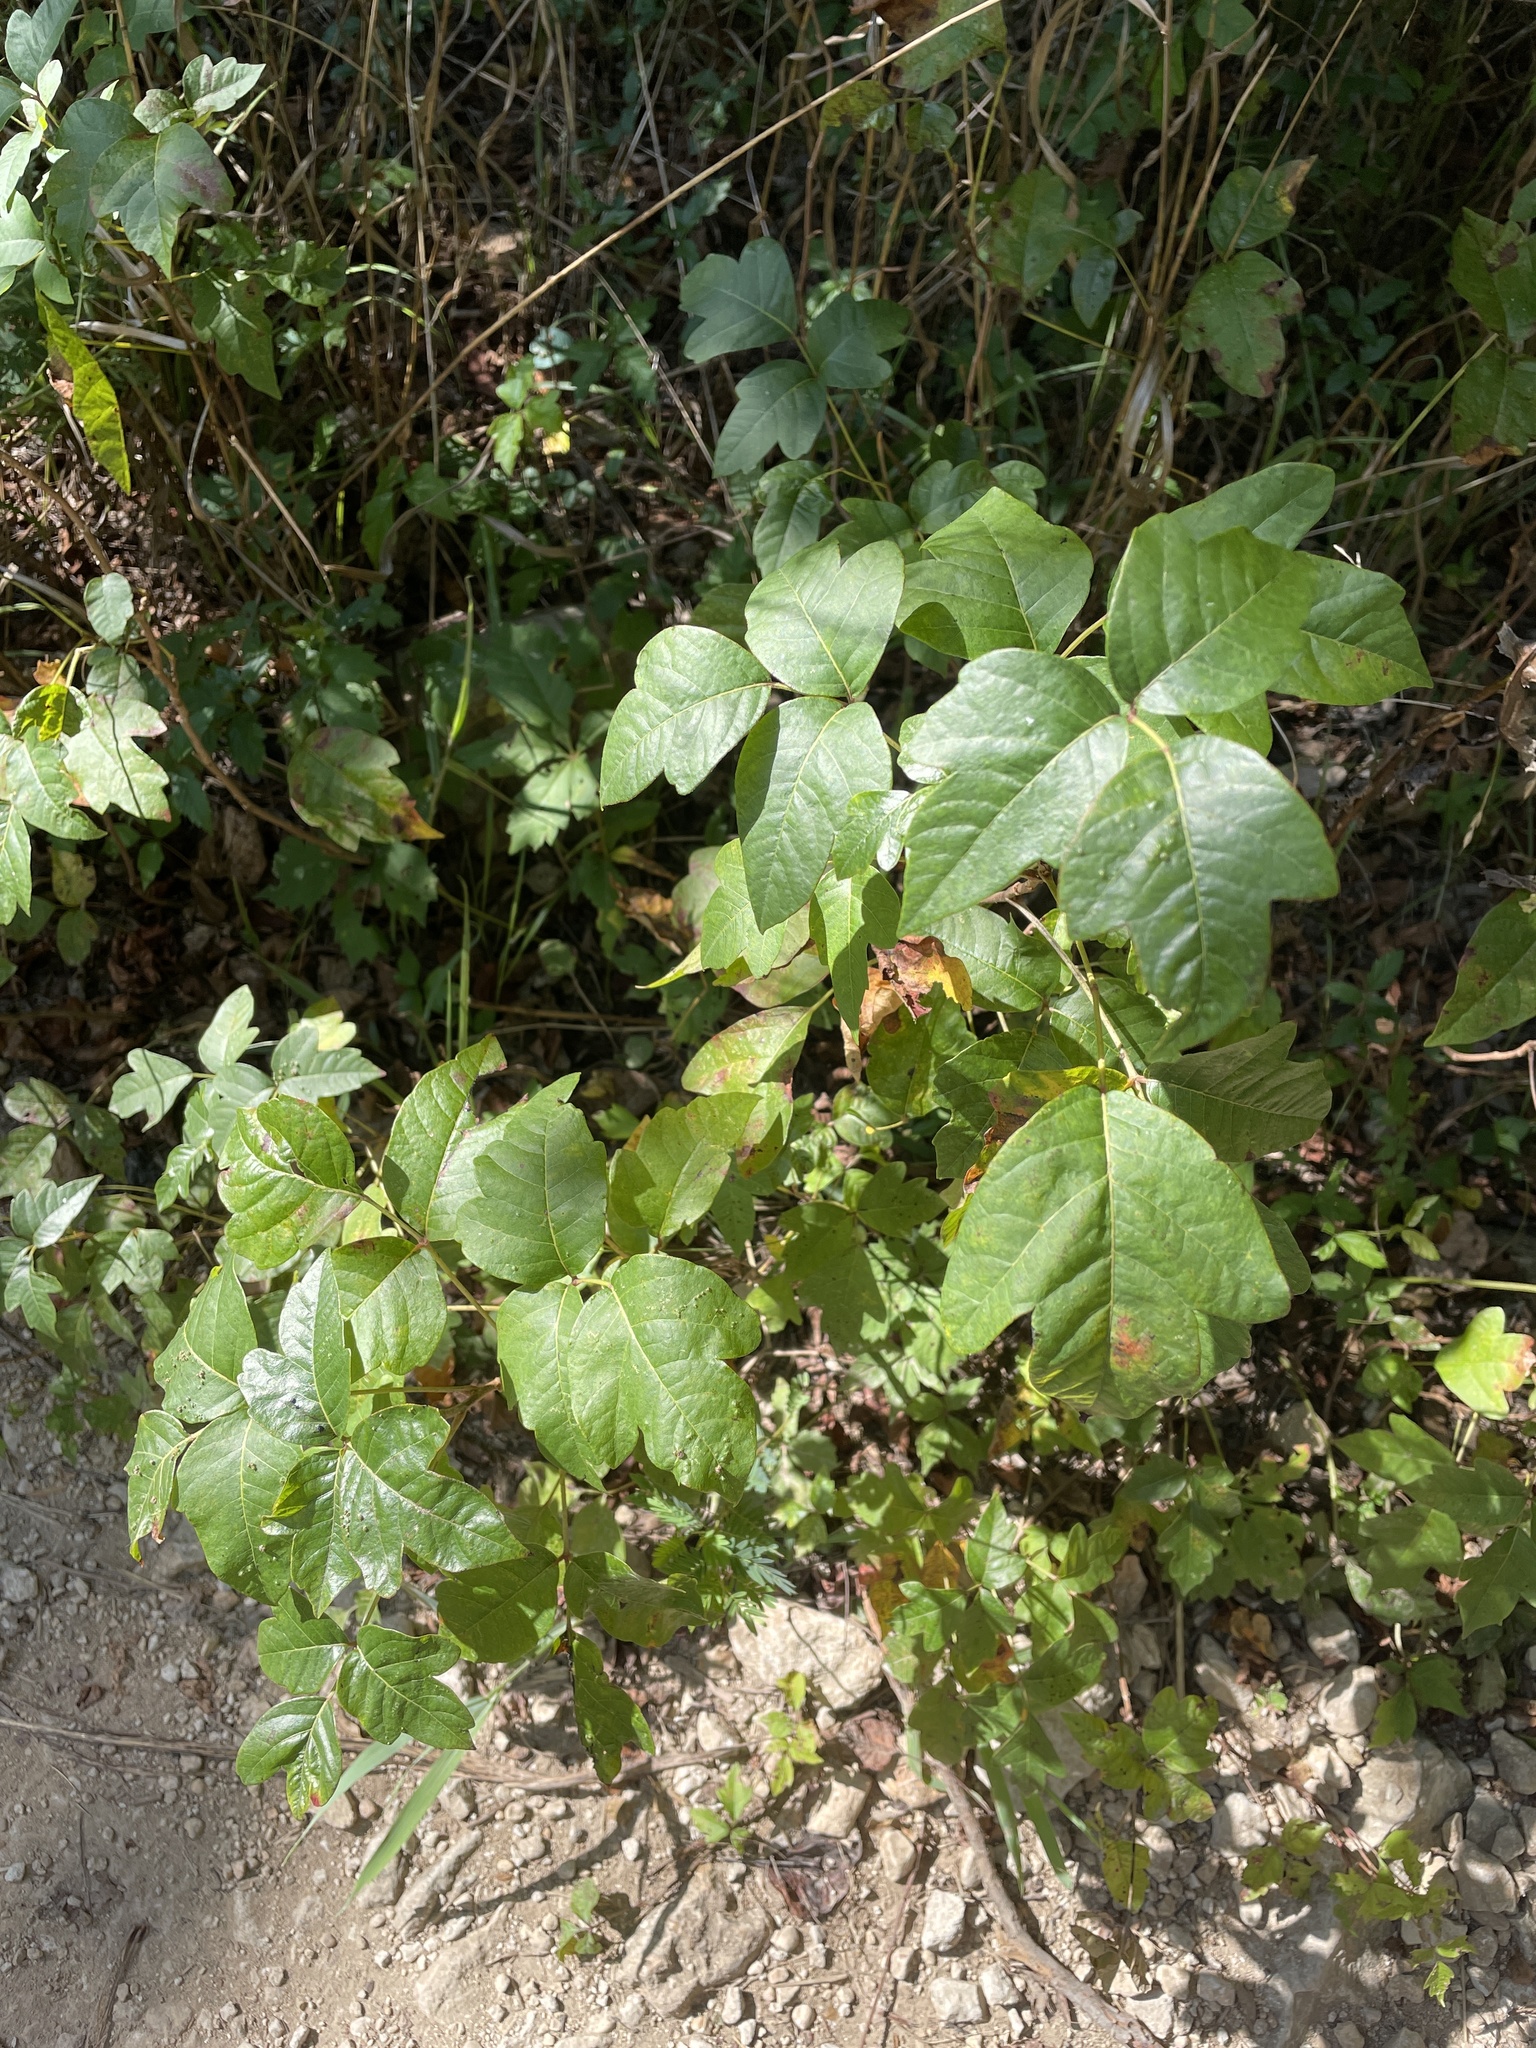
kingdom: Plantae
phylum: Tracheophyta
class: Magnoliopsida
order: Sapindales
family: Anacardiaceae
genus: Toxicodendron
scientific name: Toxicodendron radicans
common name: Poison ivy
